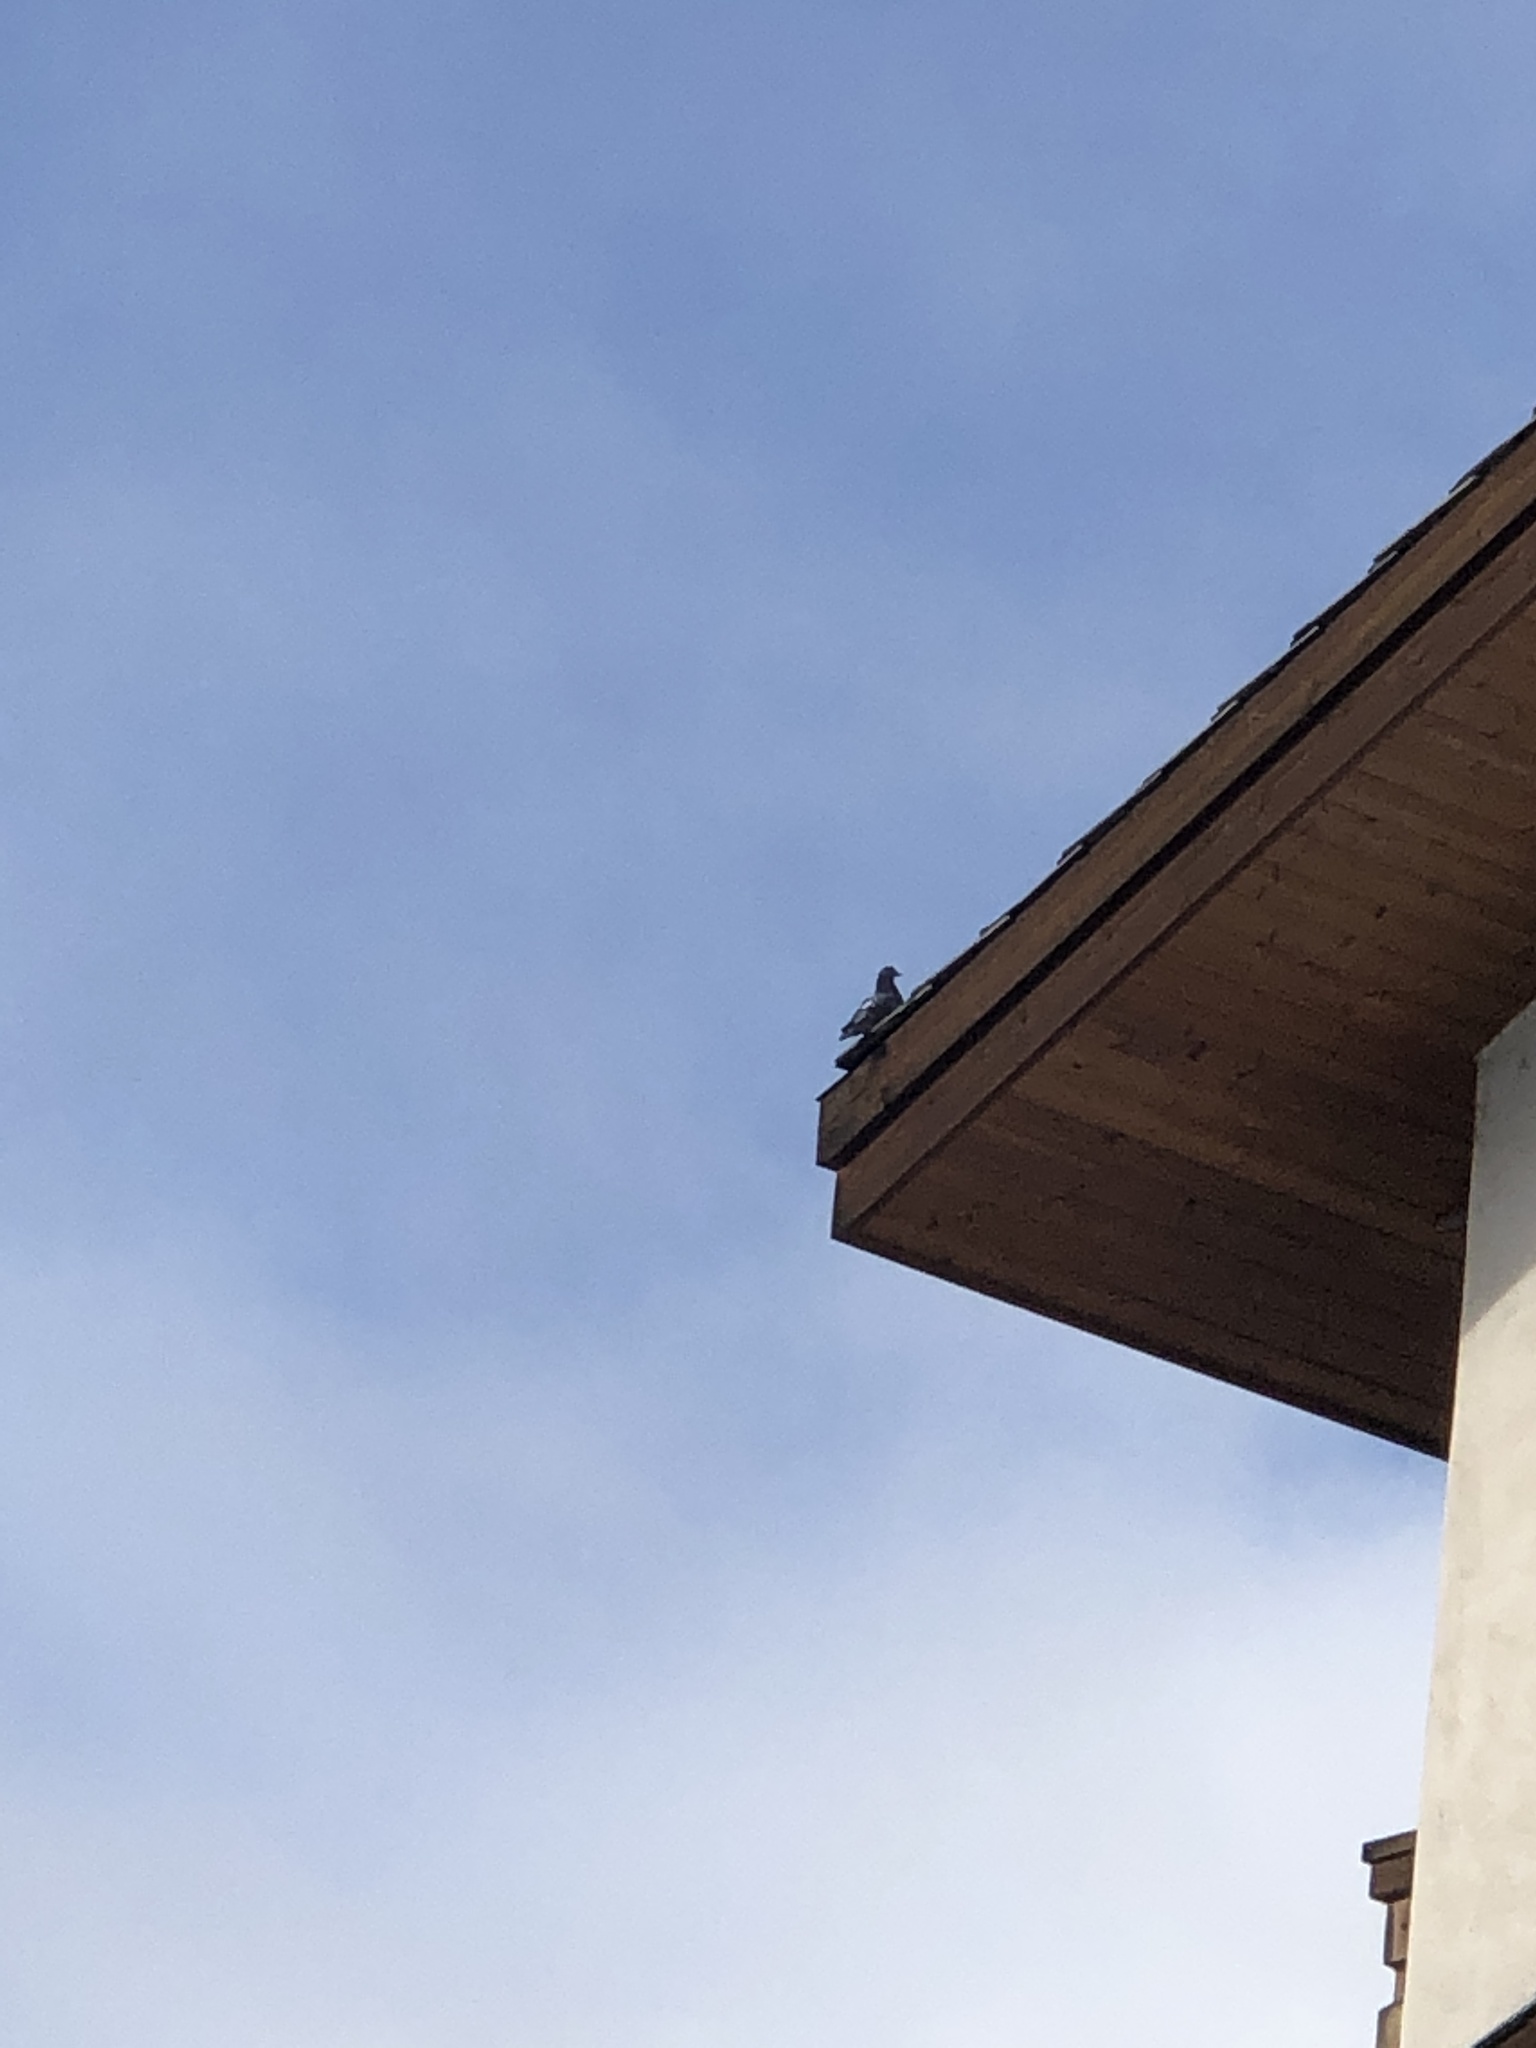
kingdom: Animalia
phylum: Chordata
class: Aves
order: Columbiformes
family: Columbidae
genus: Columba
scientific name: Columba livia
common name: Rock pigeon
